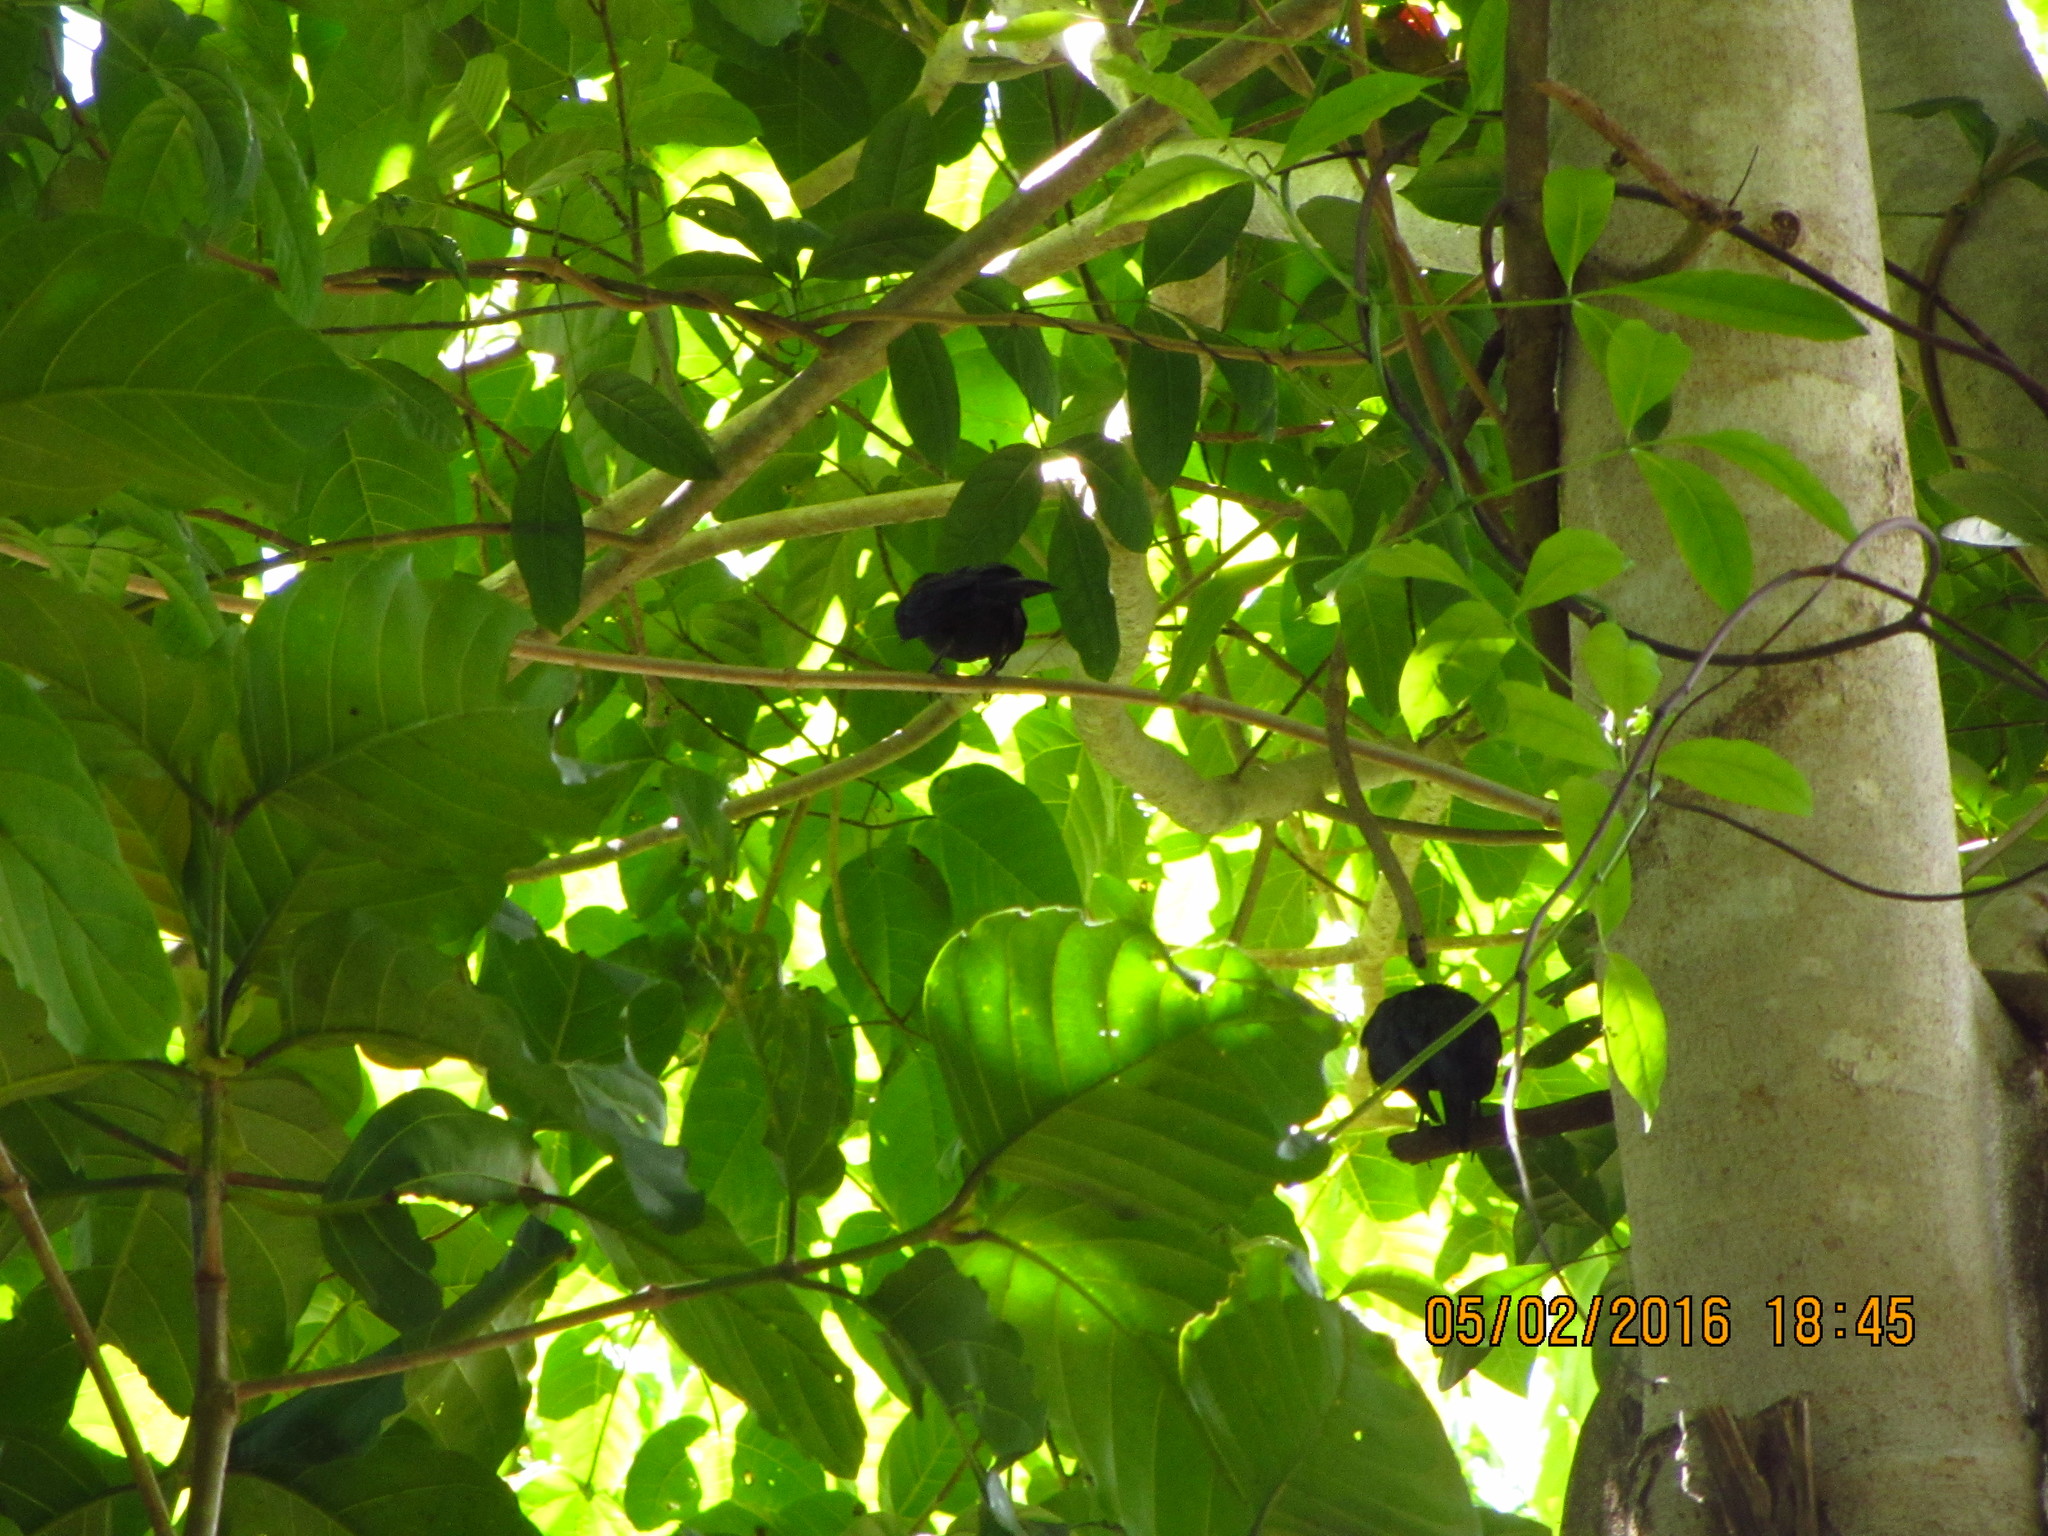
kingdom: Animalia
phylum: Chordata
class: Aves
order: Passeriformes
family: Sturnidae
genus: Aplonis
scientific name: Aplonis metallica
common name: Metallic starling
